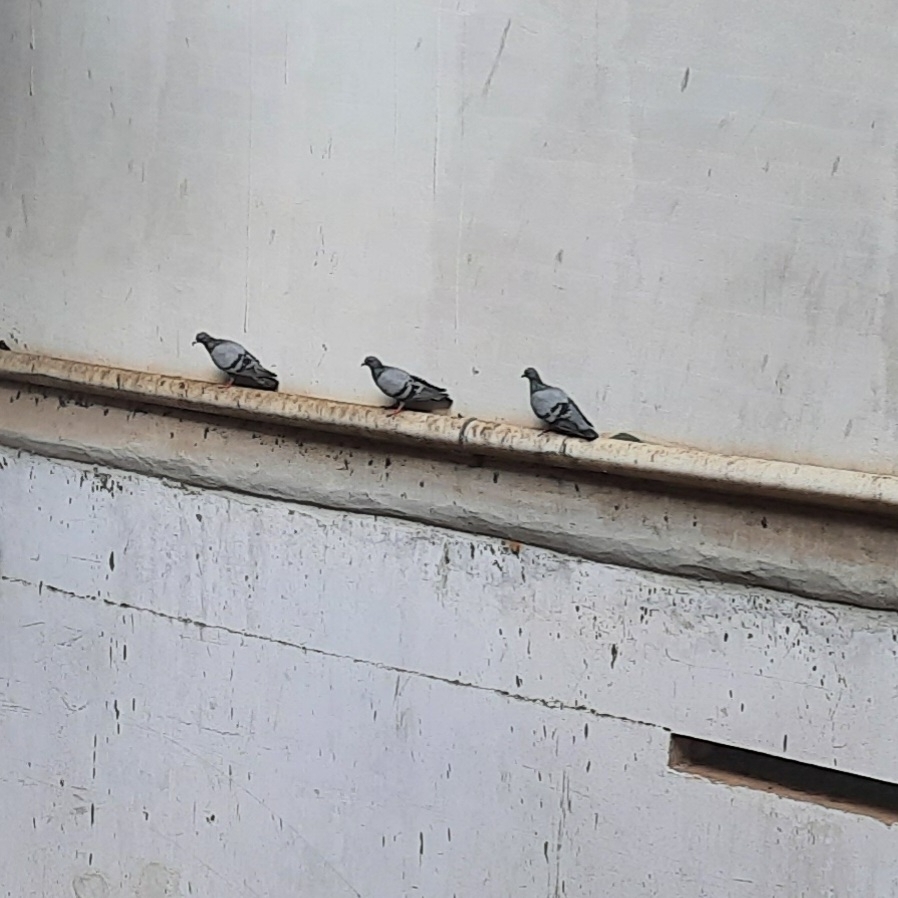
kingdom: Animalia
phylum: Chordata
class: Aves
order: Columbiformes
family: Columbidae
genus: Columba
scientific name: Columba livia
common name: Rock pigeon
